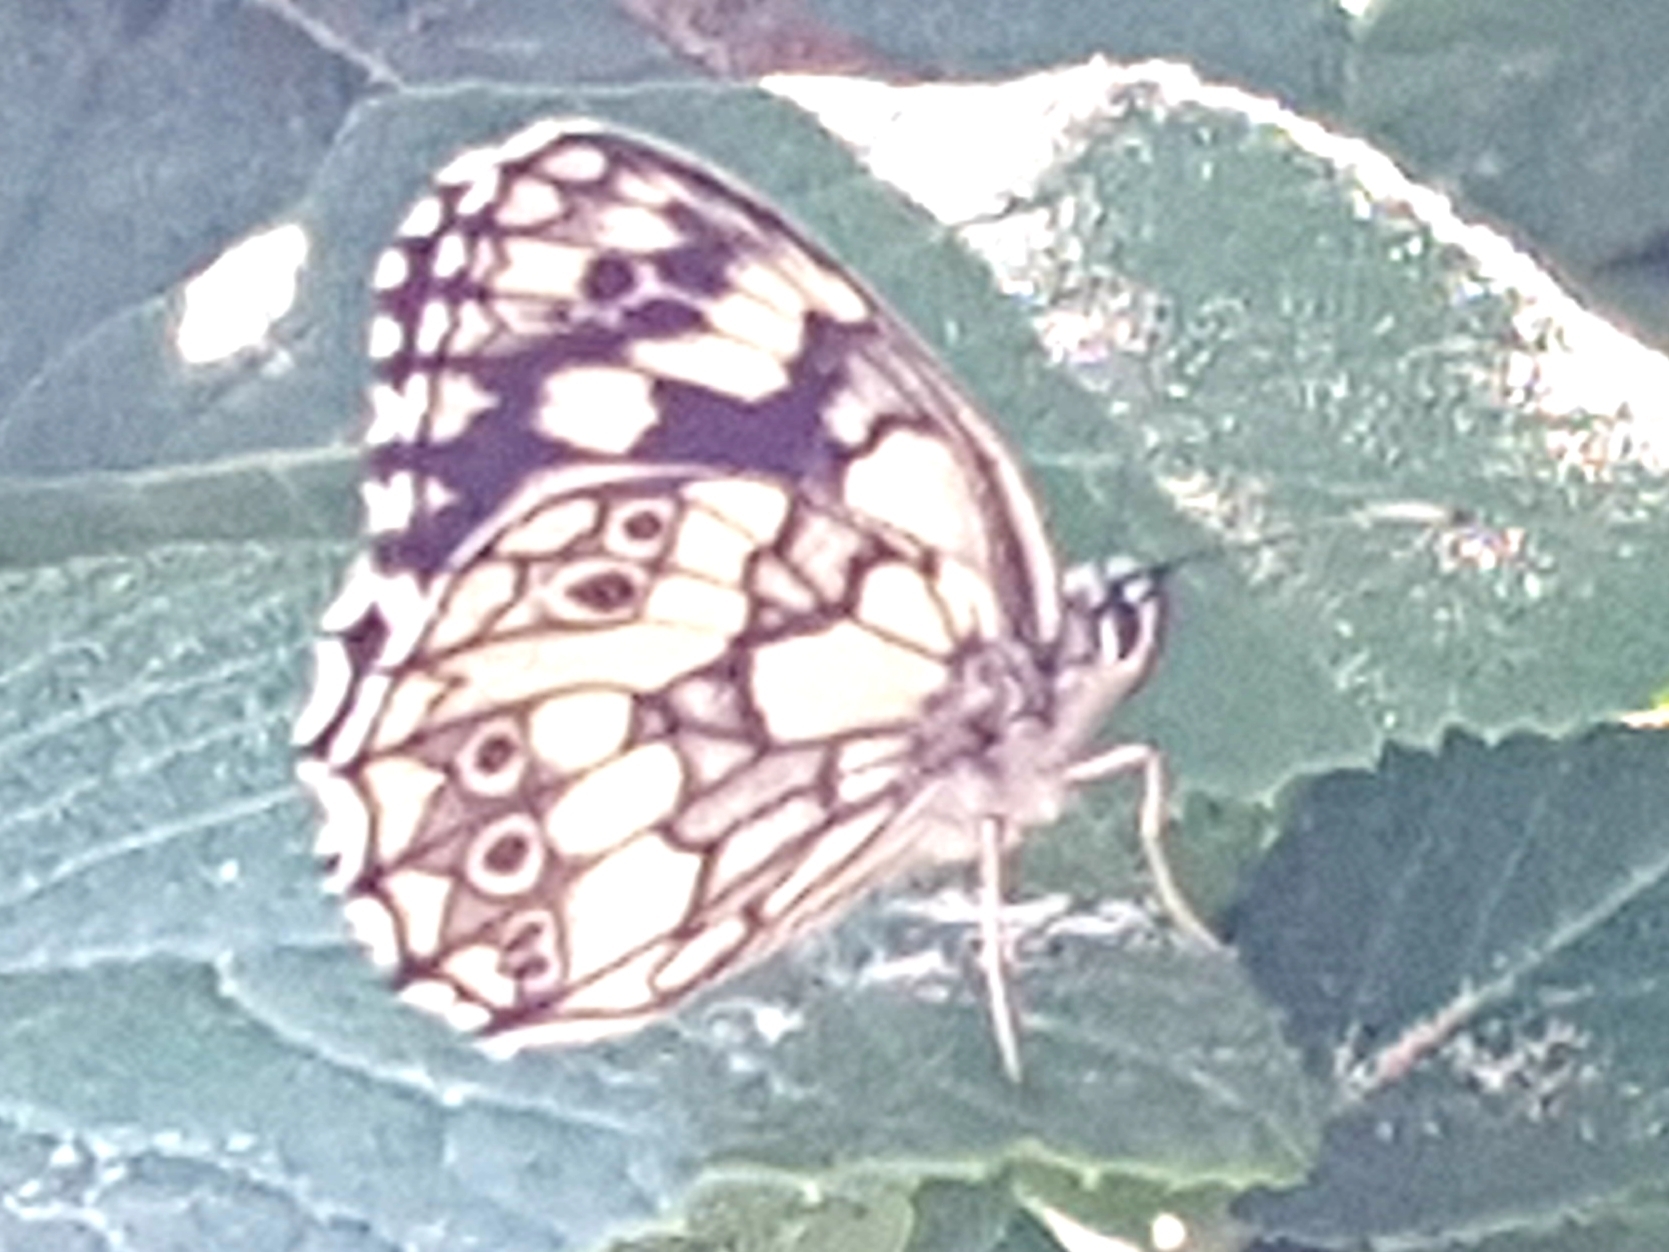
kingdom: Animalia
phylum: Arthropoda
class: Insecta
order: Lepidoptera
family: Nymphalidae
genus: Melanargia
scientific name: Melanargia galathea
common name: Marbled white
